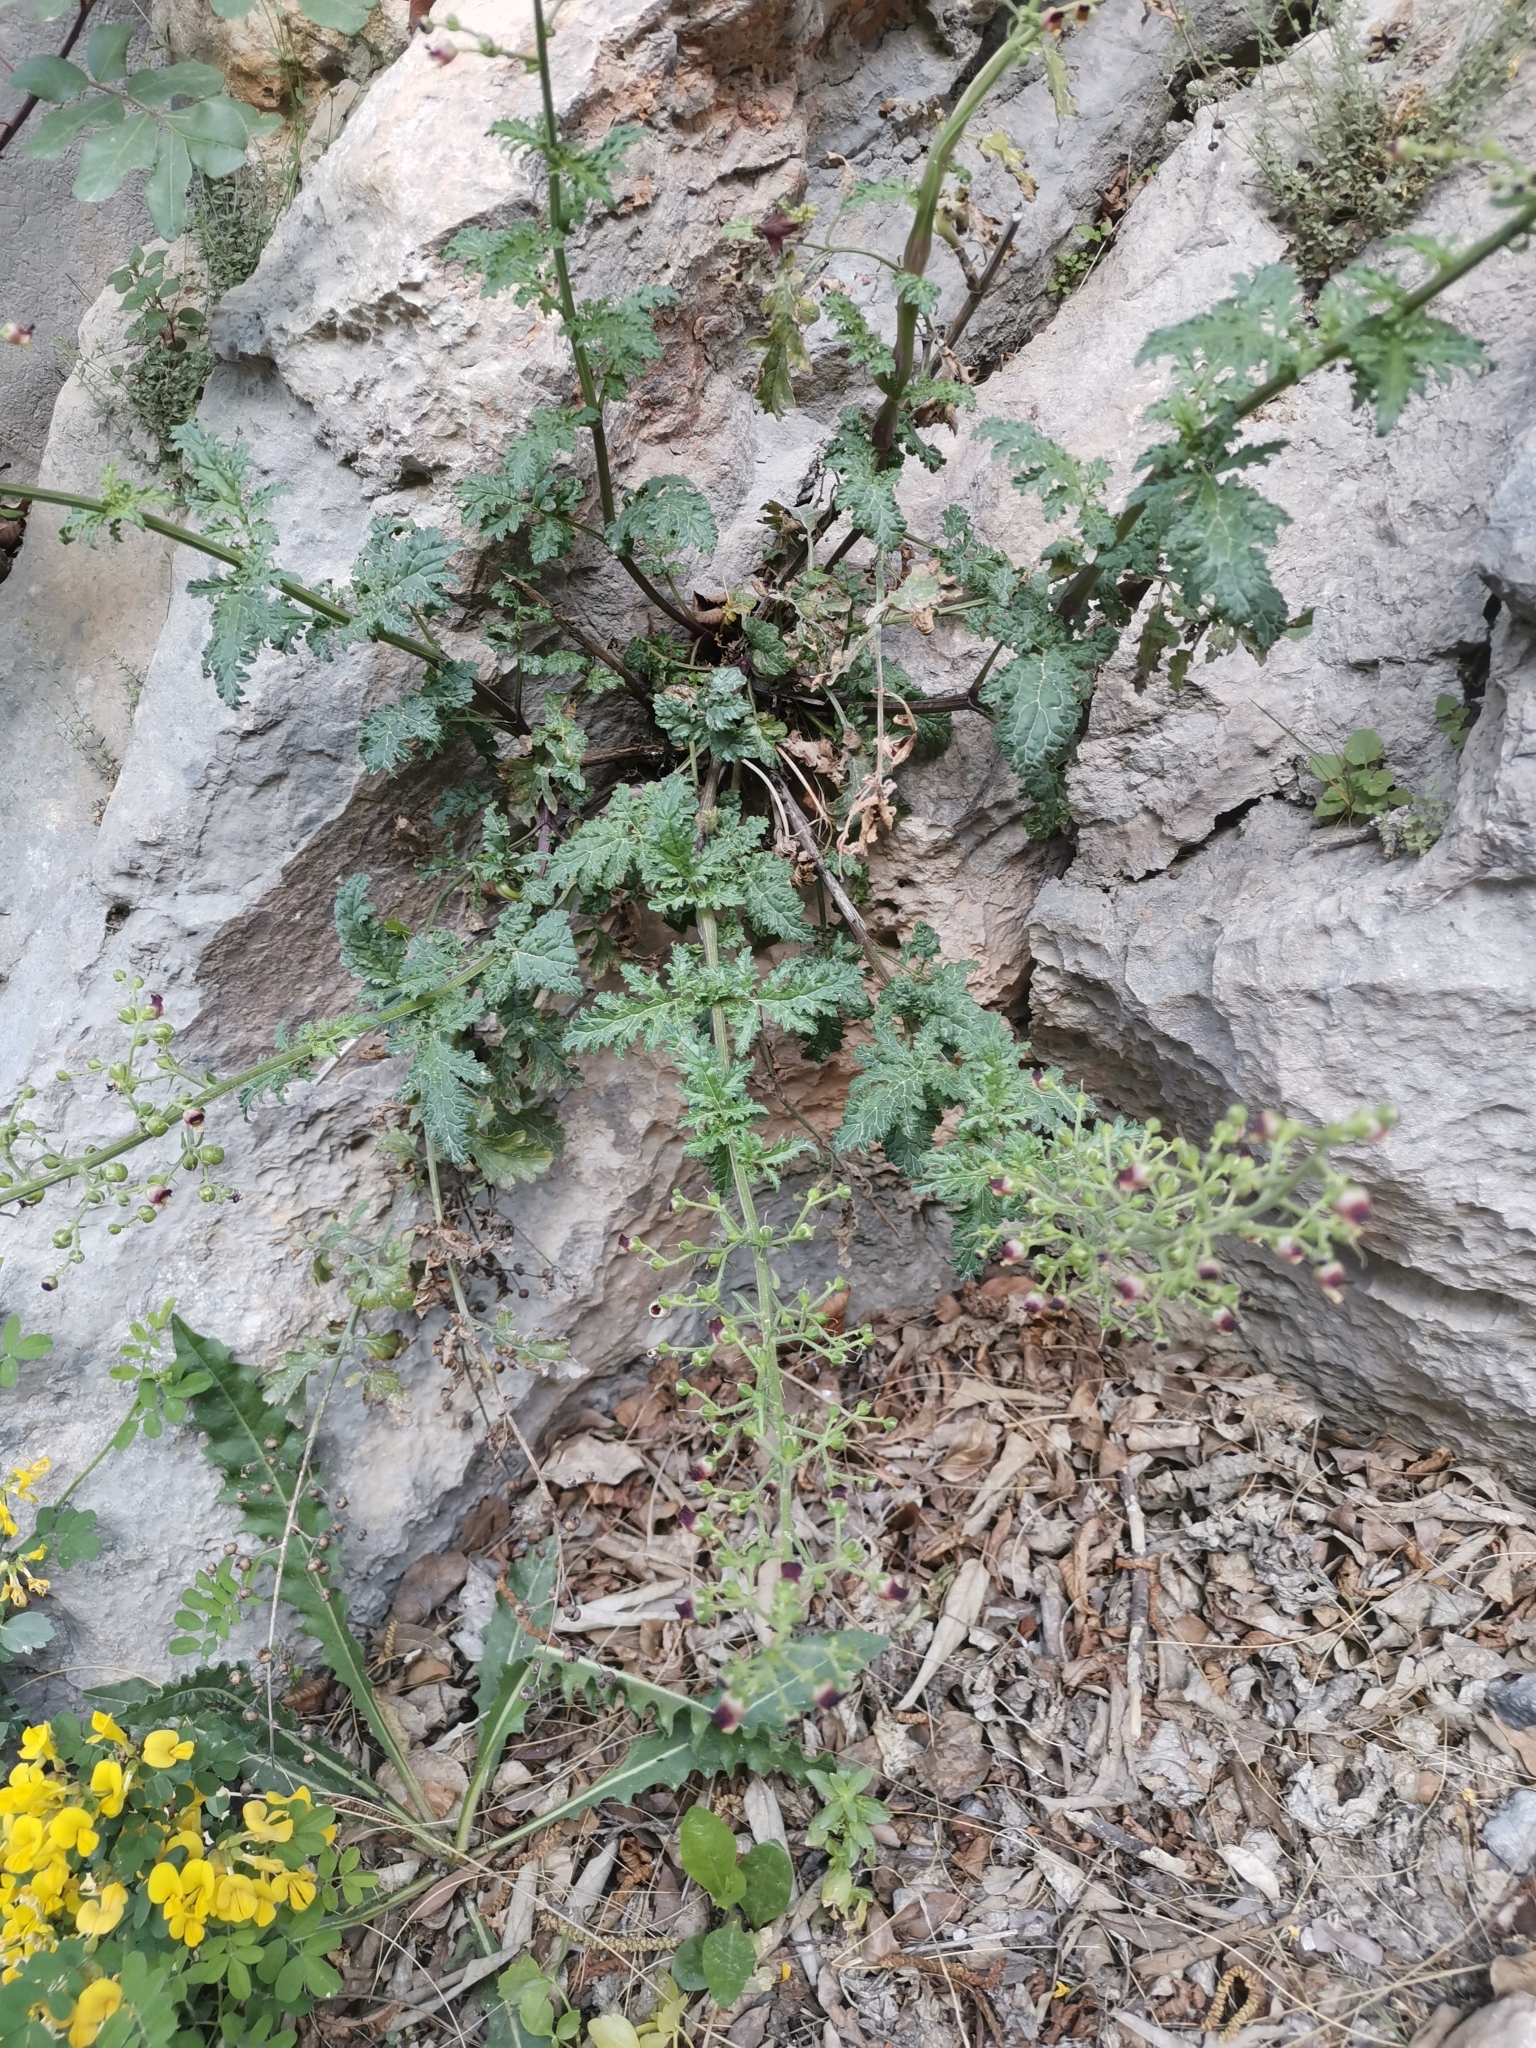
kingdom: Plantae
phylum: Tracheophyta
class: Magnoliopsida
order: Lamiales
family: Scrophulariaceae
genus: Scrophularia
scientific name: Scrophularia heterophylla
